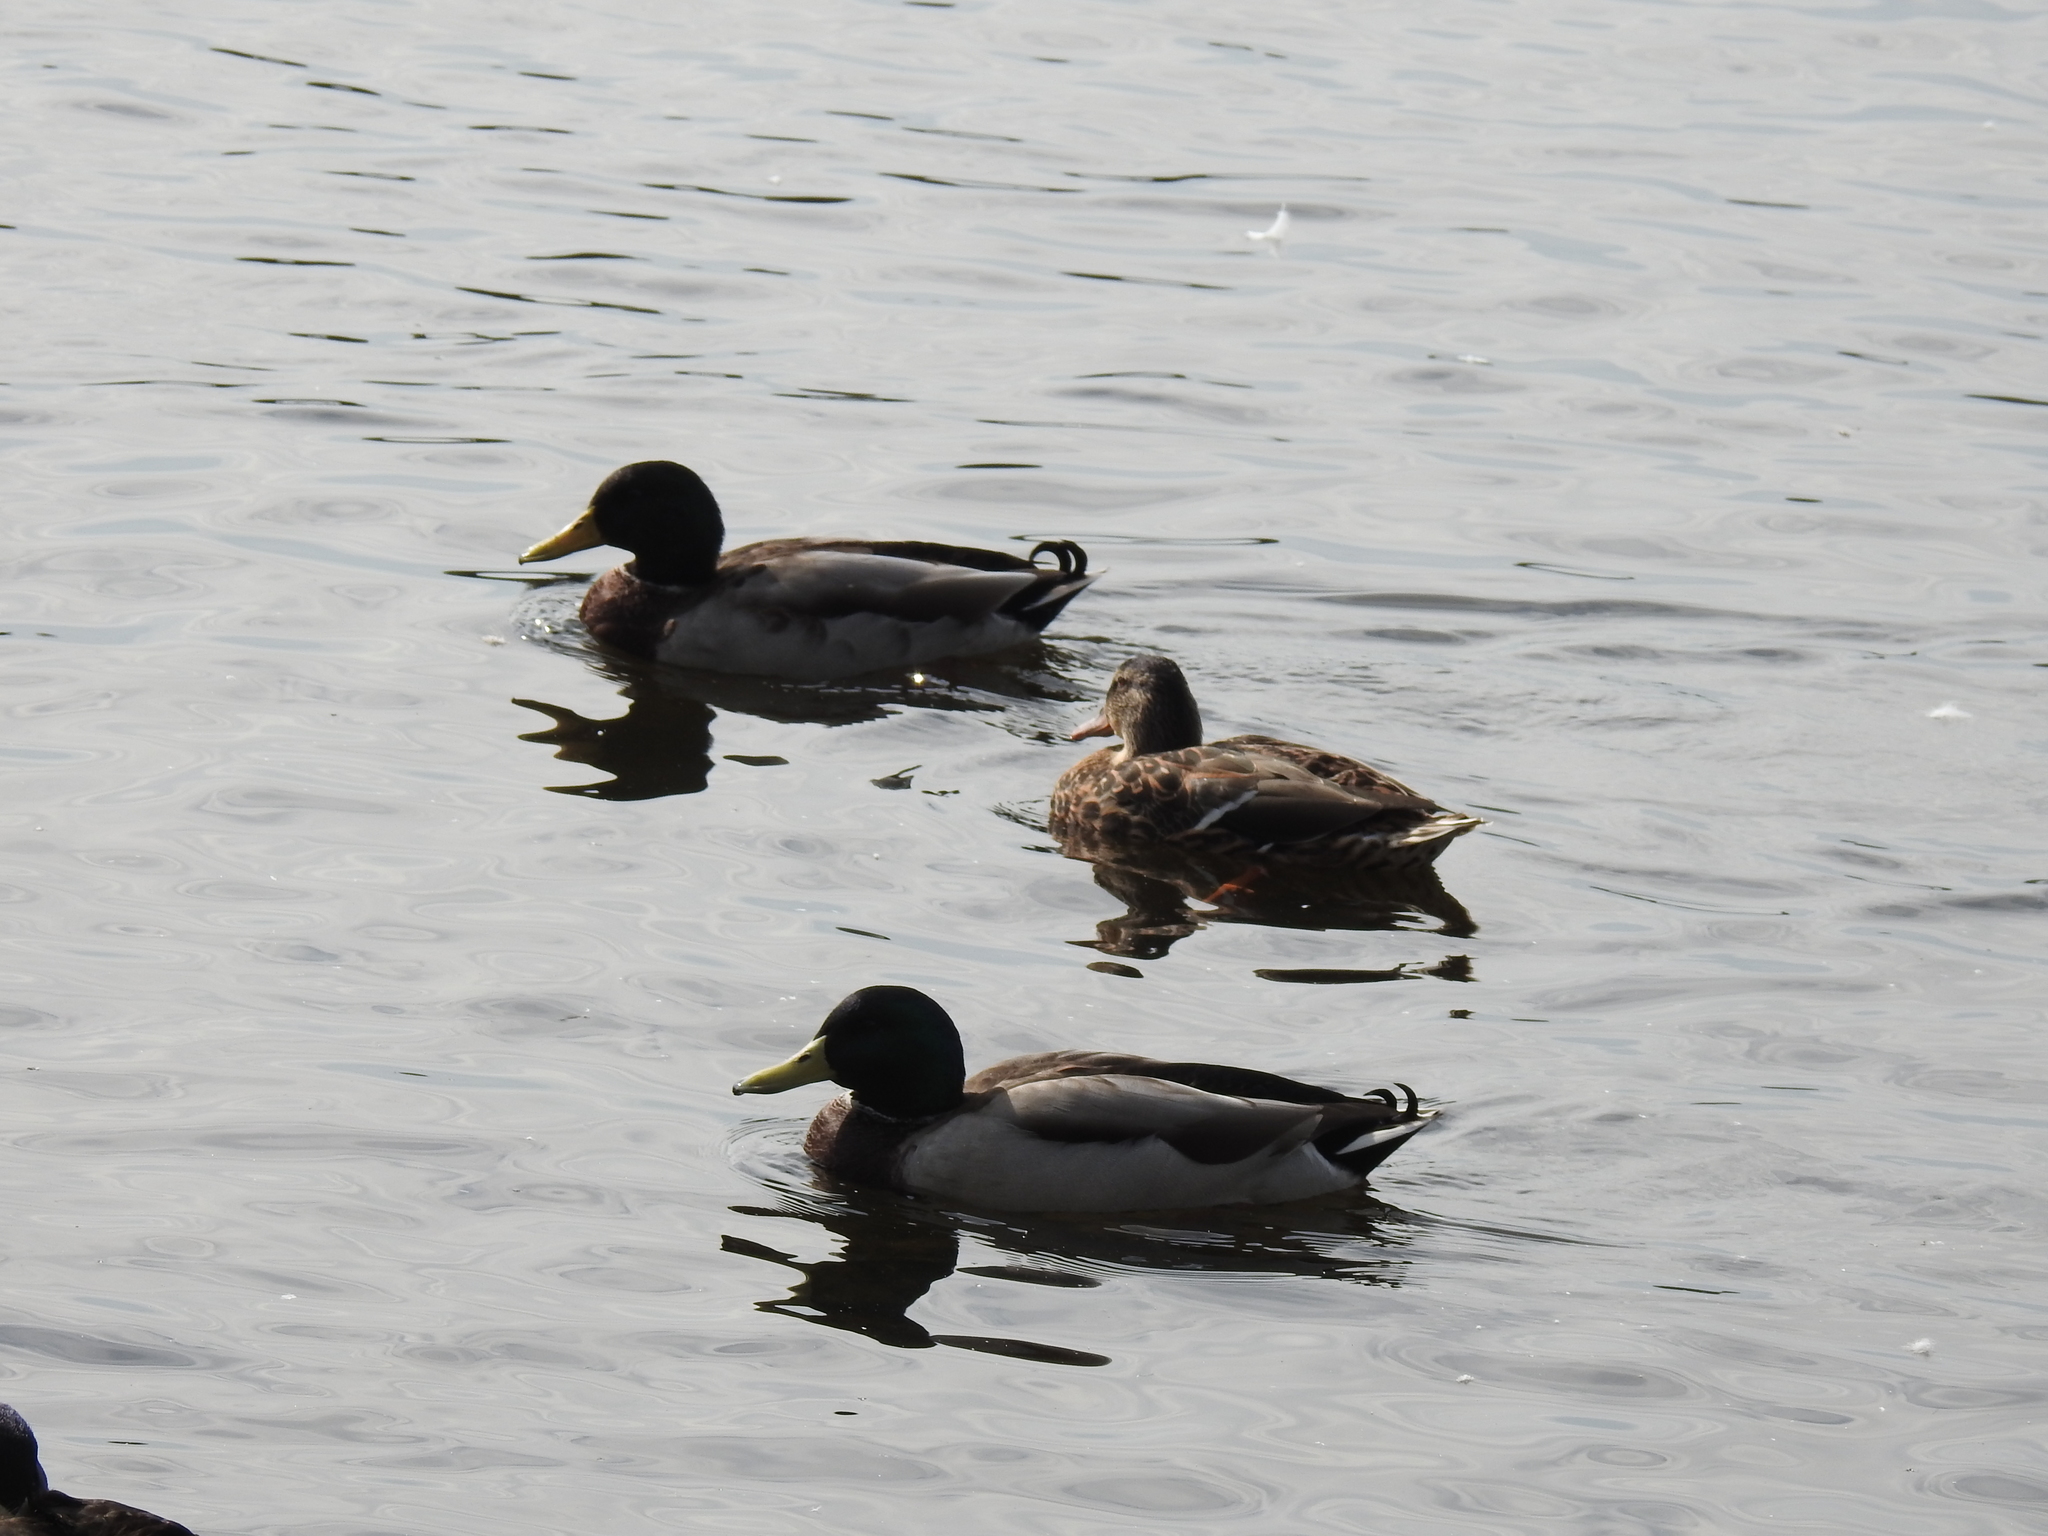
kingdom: Animalia
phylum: Chordata
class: Aves
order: Anseriformes
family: Anatidae
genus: Anas
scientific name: Anas platyrhynchos
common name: Mallard
